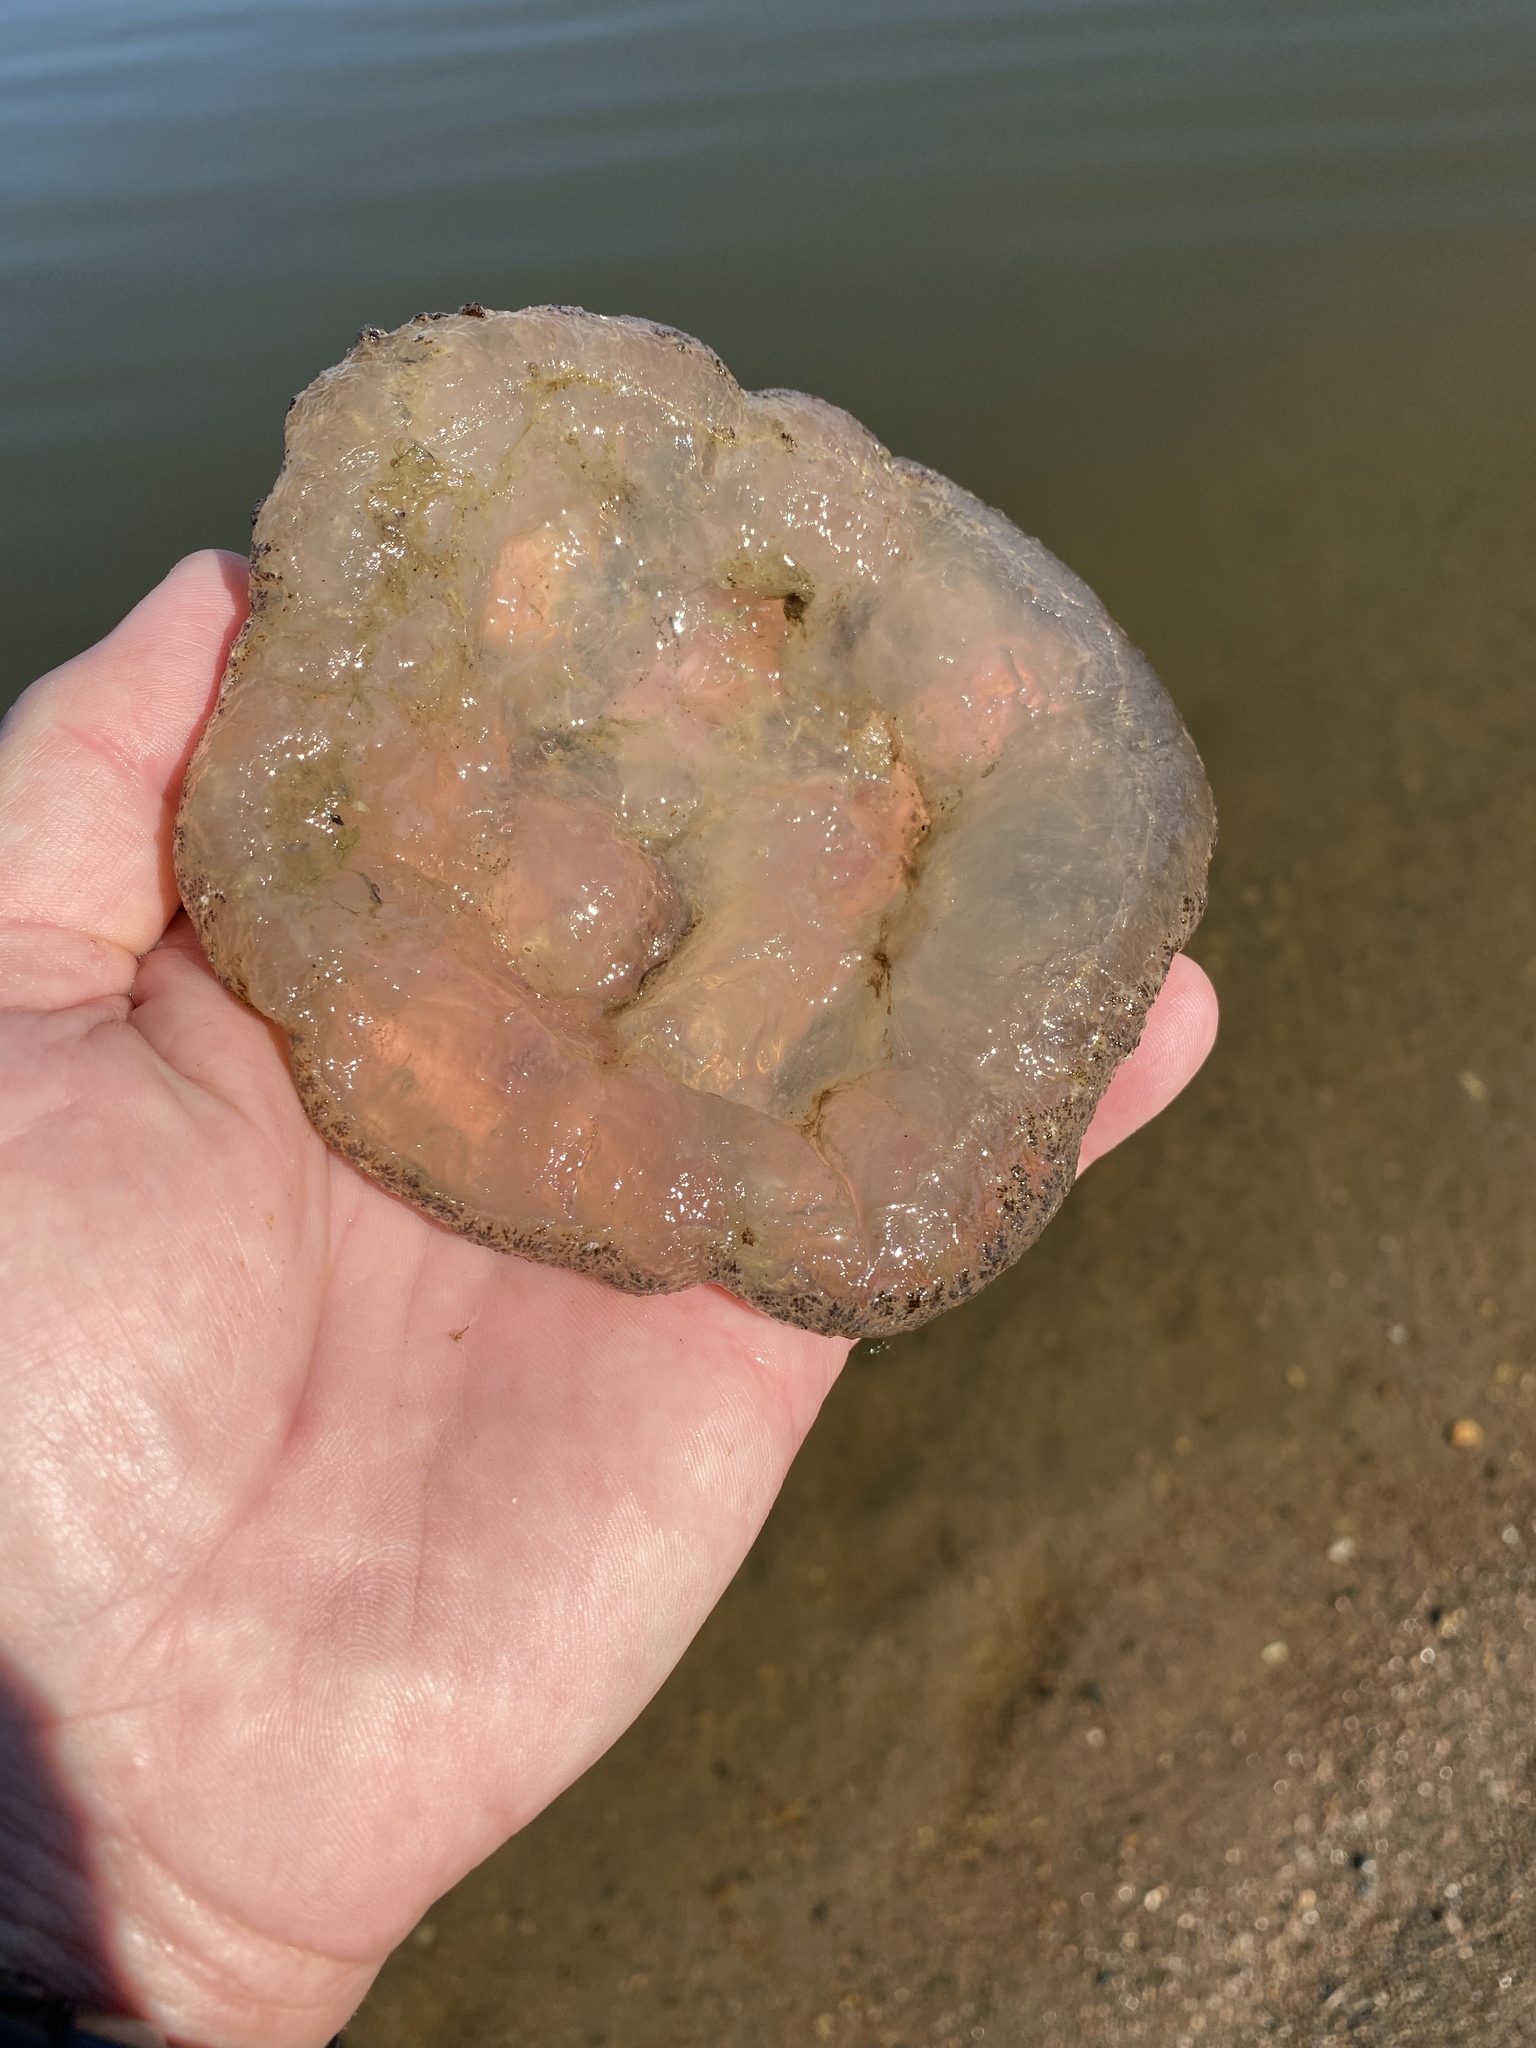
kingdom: Animalia
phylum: Bryozoa
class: Phylactolaemata
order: Plumatellida
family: Pectinatellidae
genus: Pectinatella
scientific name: Pectinatella magnifica
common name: Magnificent bryozoan
